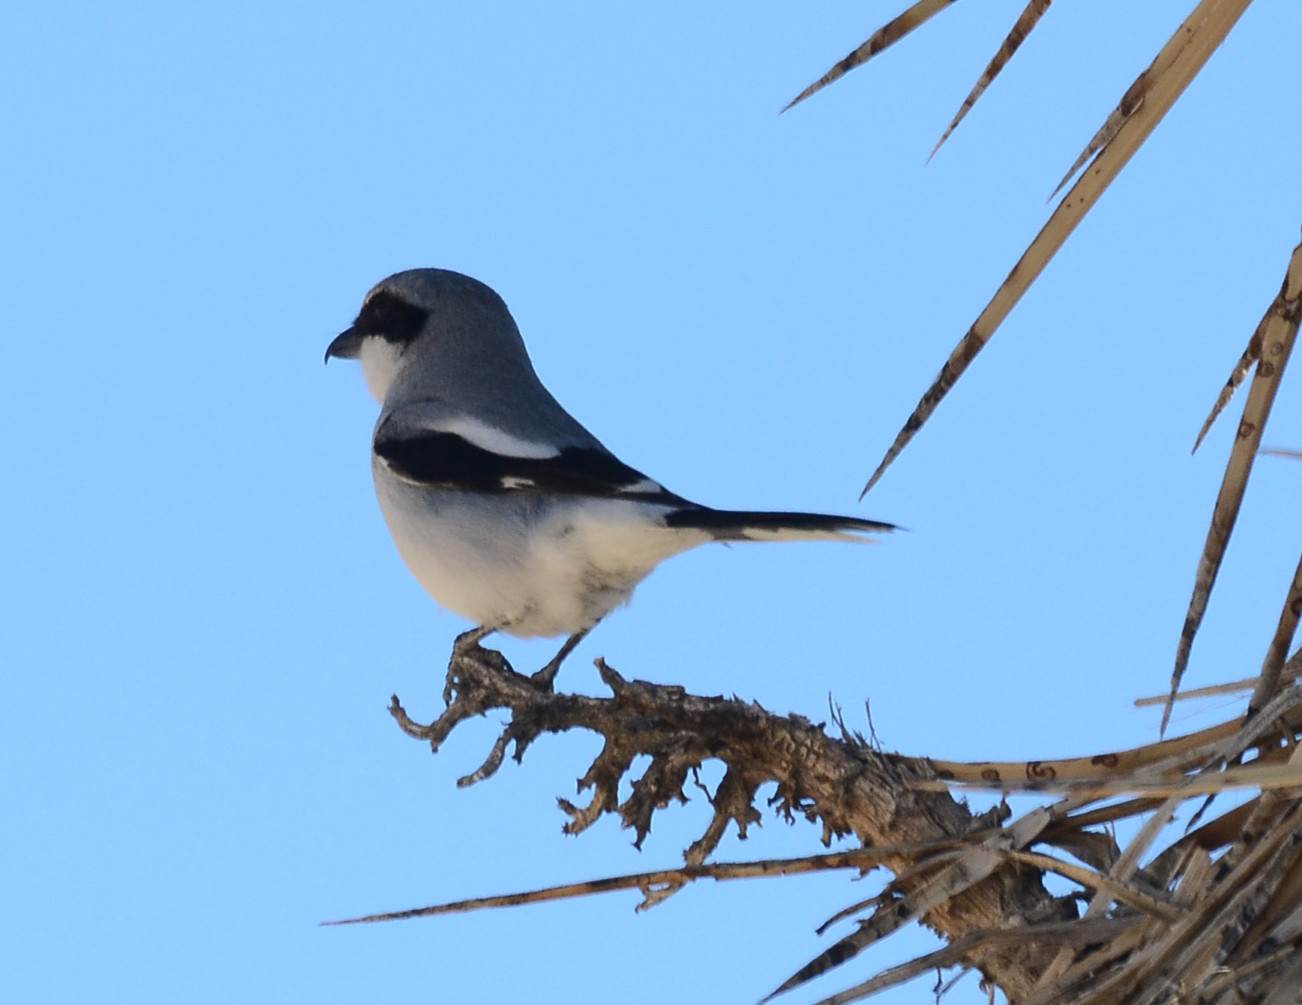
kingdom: Animalia
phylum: Chordata
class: Aves
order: Passeriformes
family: Laniidae
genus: Lanius
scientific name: Lanius ludovicianus
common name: Loggerhead shrike
